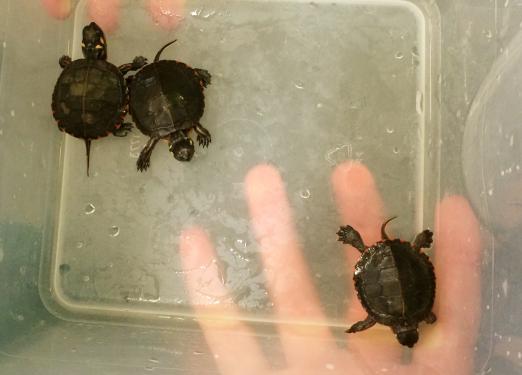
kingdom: Animalia
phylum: Chordata
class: Testudines
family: Emydidae
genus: Chrysemys
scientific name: Chrysemys picta
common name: Painted turtle
